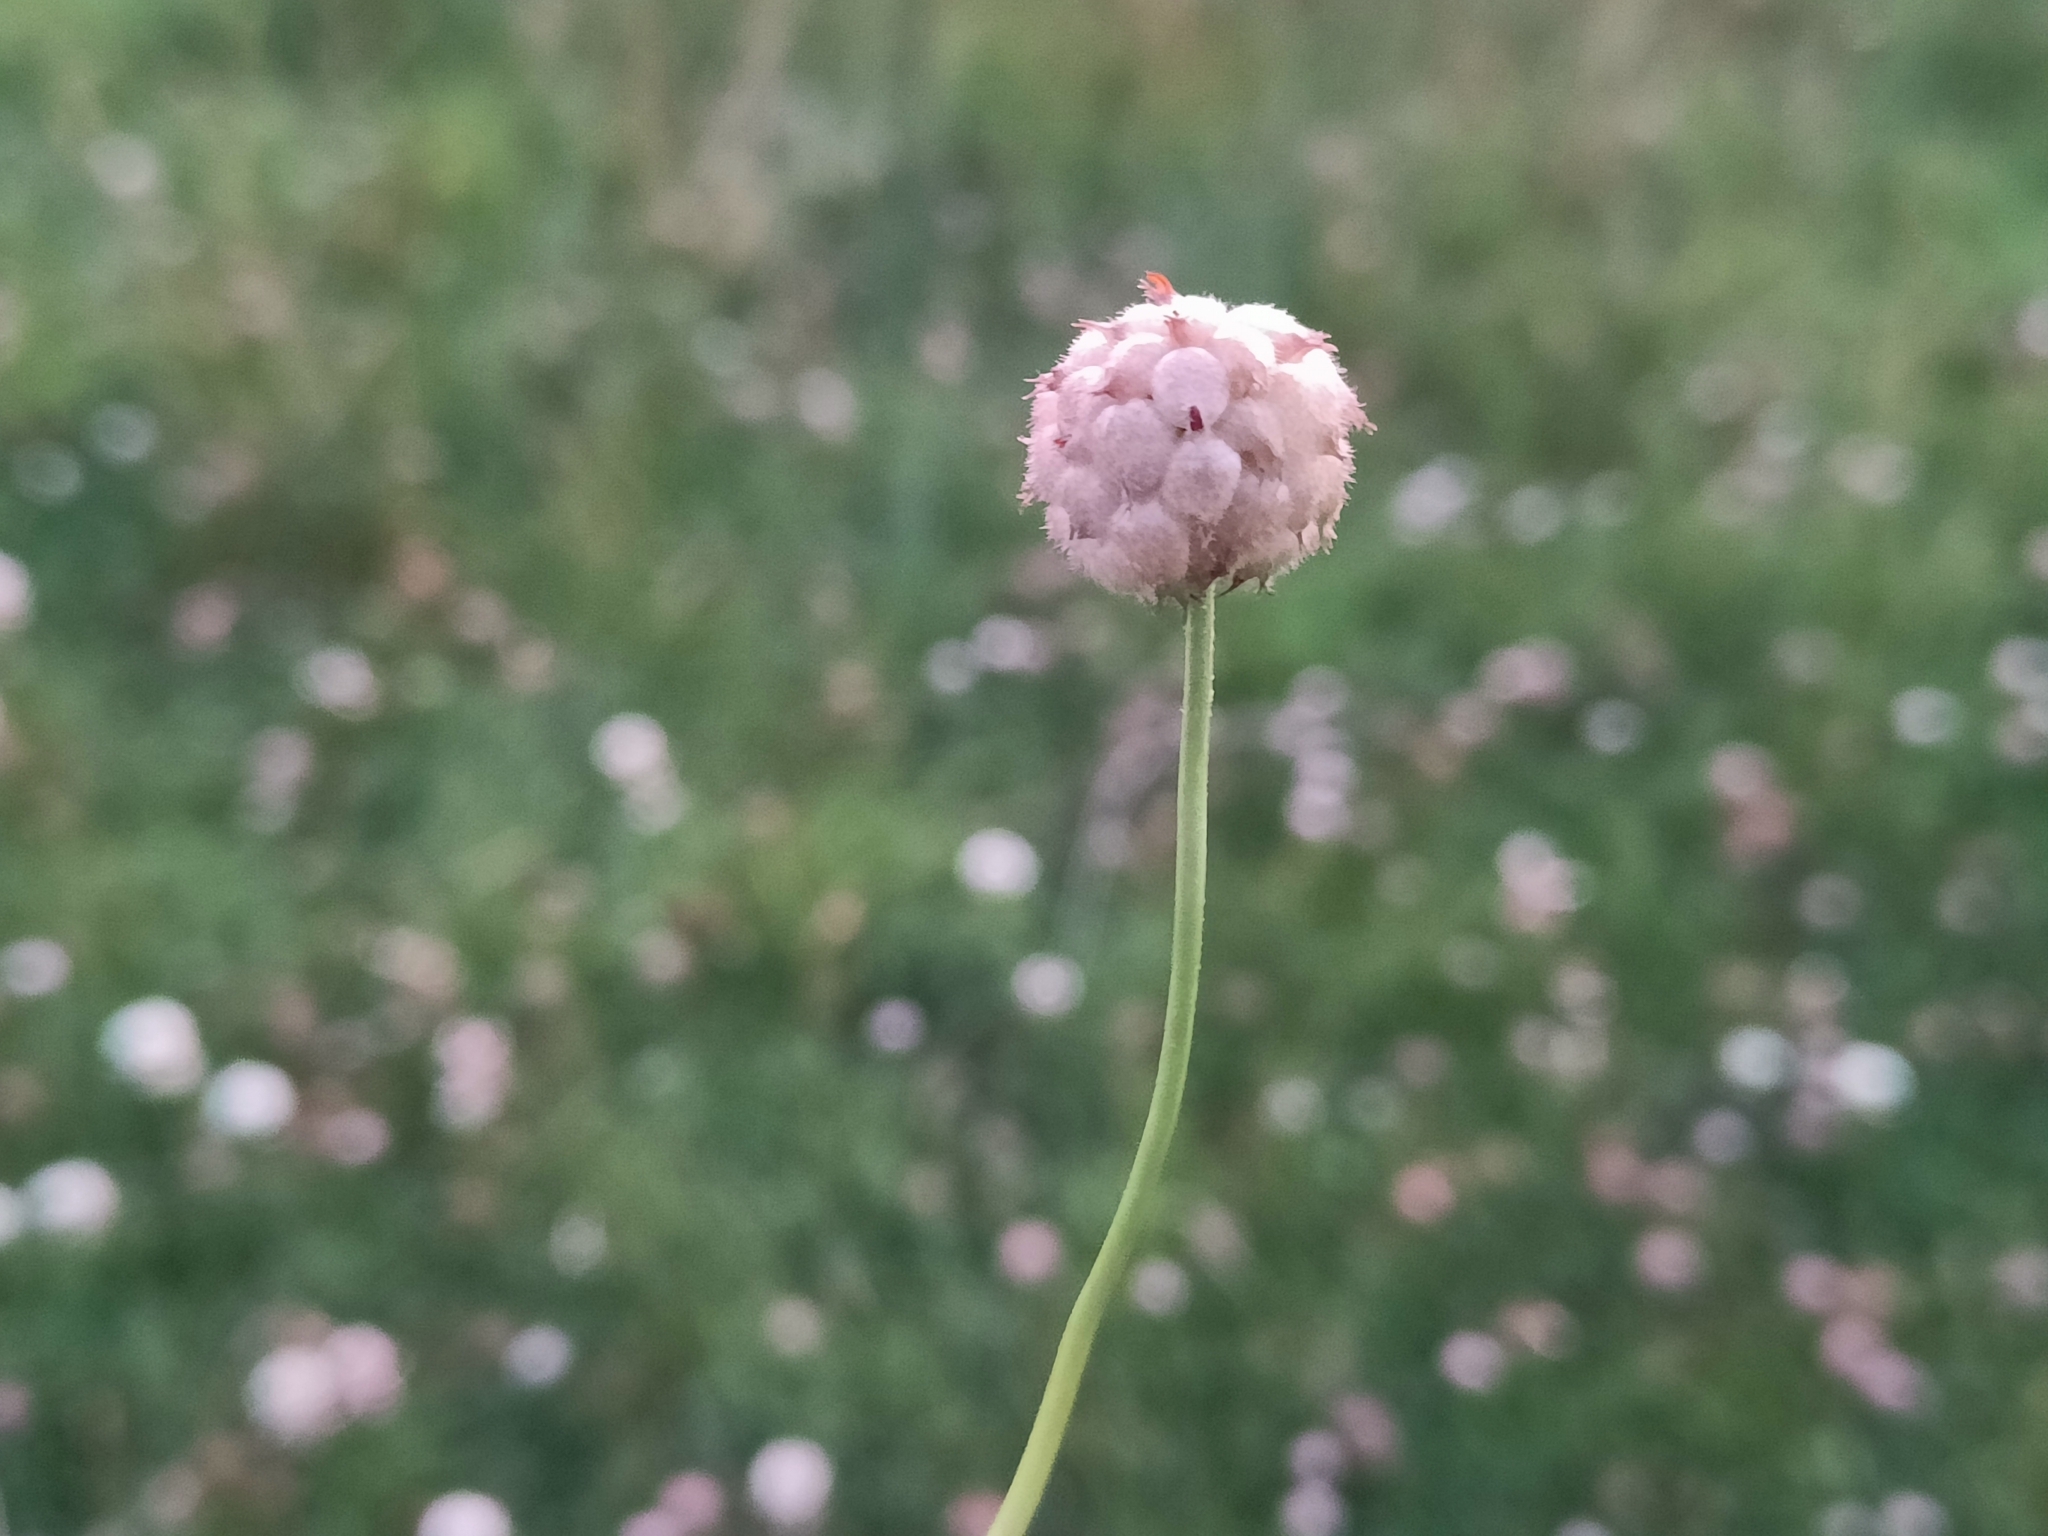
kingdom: Plantae
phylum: Tracheophyta
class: Magnoliopsida
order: Fabales
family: Fabaceae
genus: Trifolium
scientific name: Trifolium fragiferum
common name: Strawberry clover
